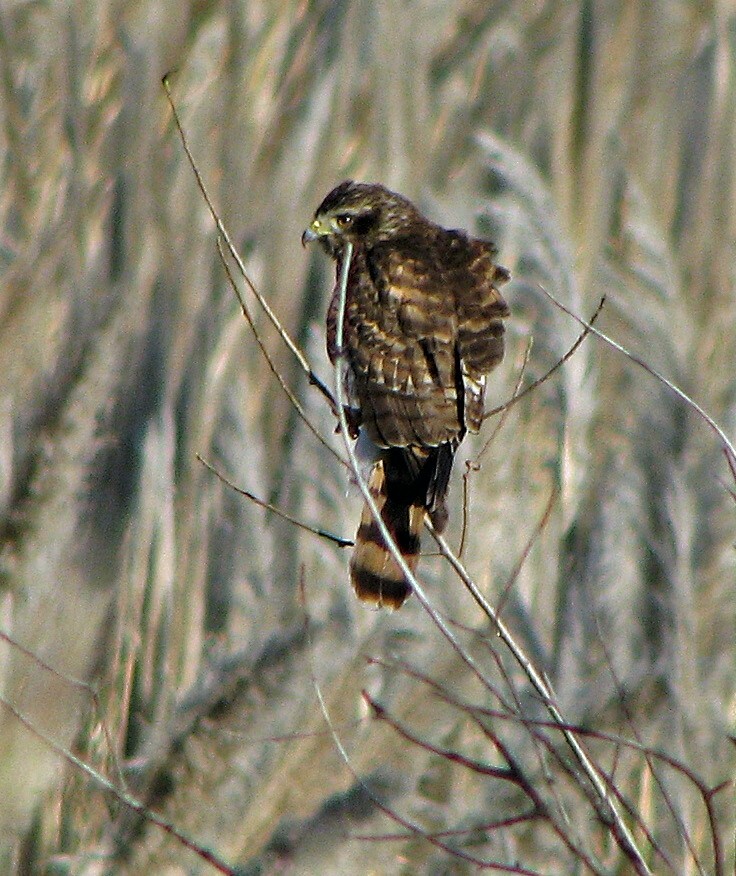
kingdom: Animalia
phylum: Chordata
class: Aves
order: Accipitriformes
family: Accipitridae
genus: Rupornis
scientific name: Rupornis magnirostris
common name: Roadside hawk
